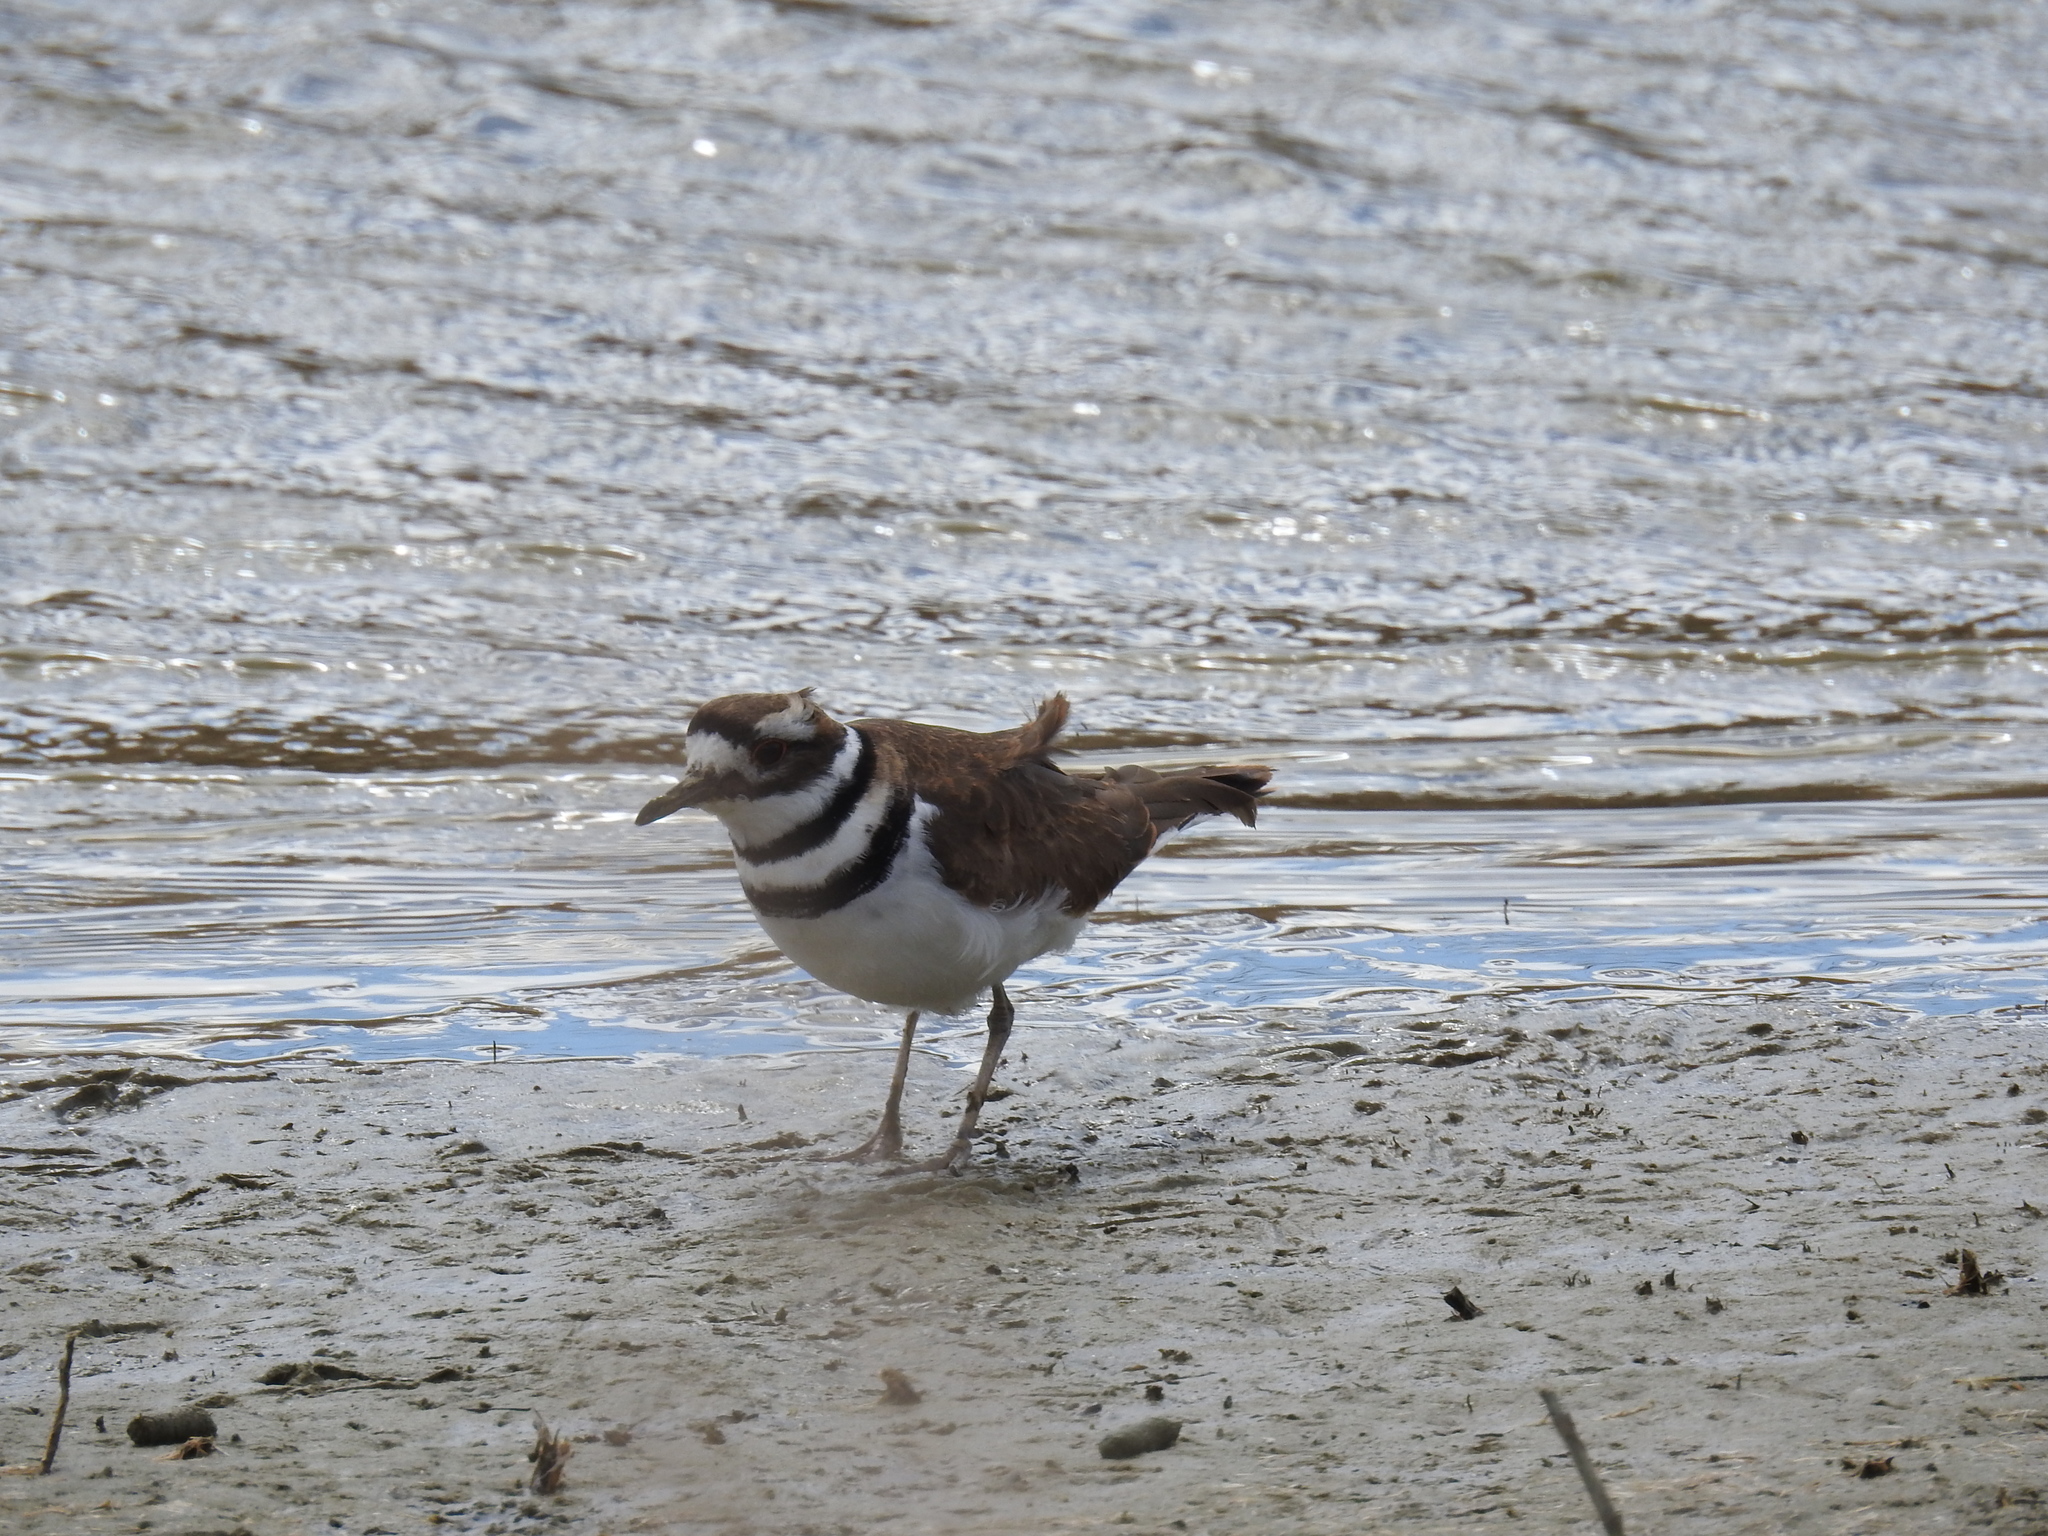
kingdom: Animalia
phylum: Chordata
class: Aves
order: Charadriiformes
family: Charadriidae
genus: Charadrius
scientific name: Charadrius vociferus
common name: Killdeer
